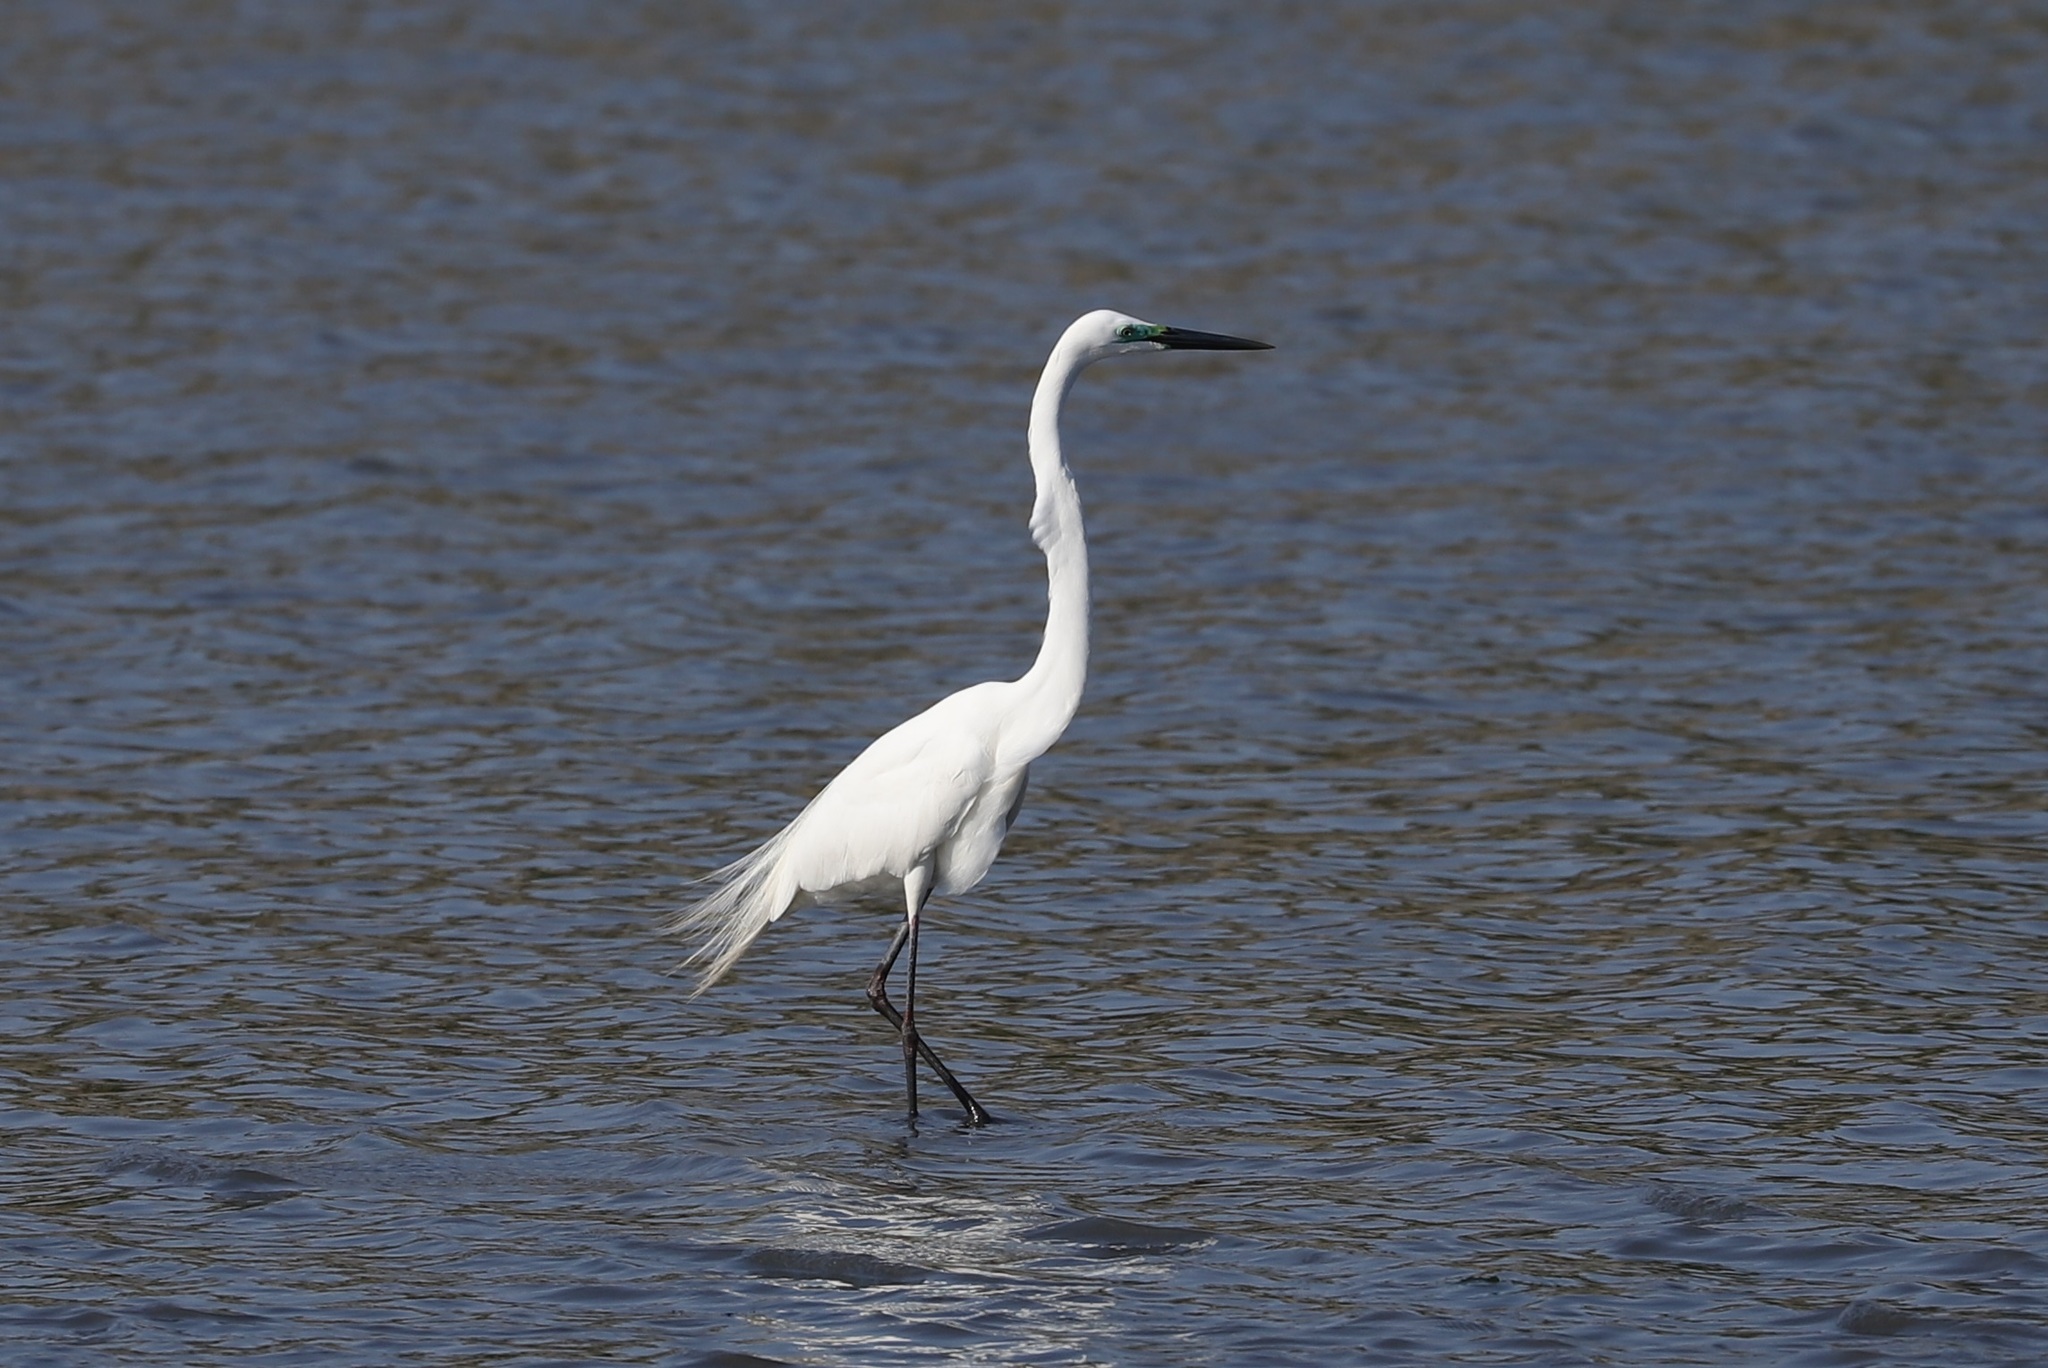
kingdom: Animalia
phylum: Chordata
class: Aves
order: Pelecaniformes
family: Ardeidae
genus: Ardea
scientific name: Ardea alba
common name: Great egret
